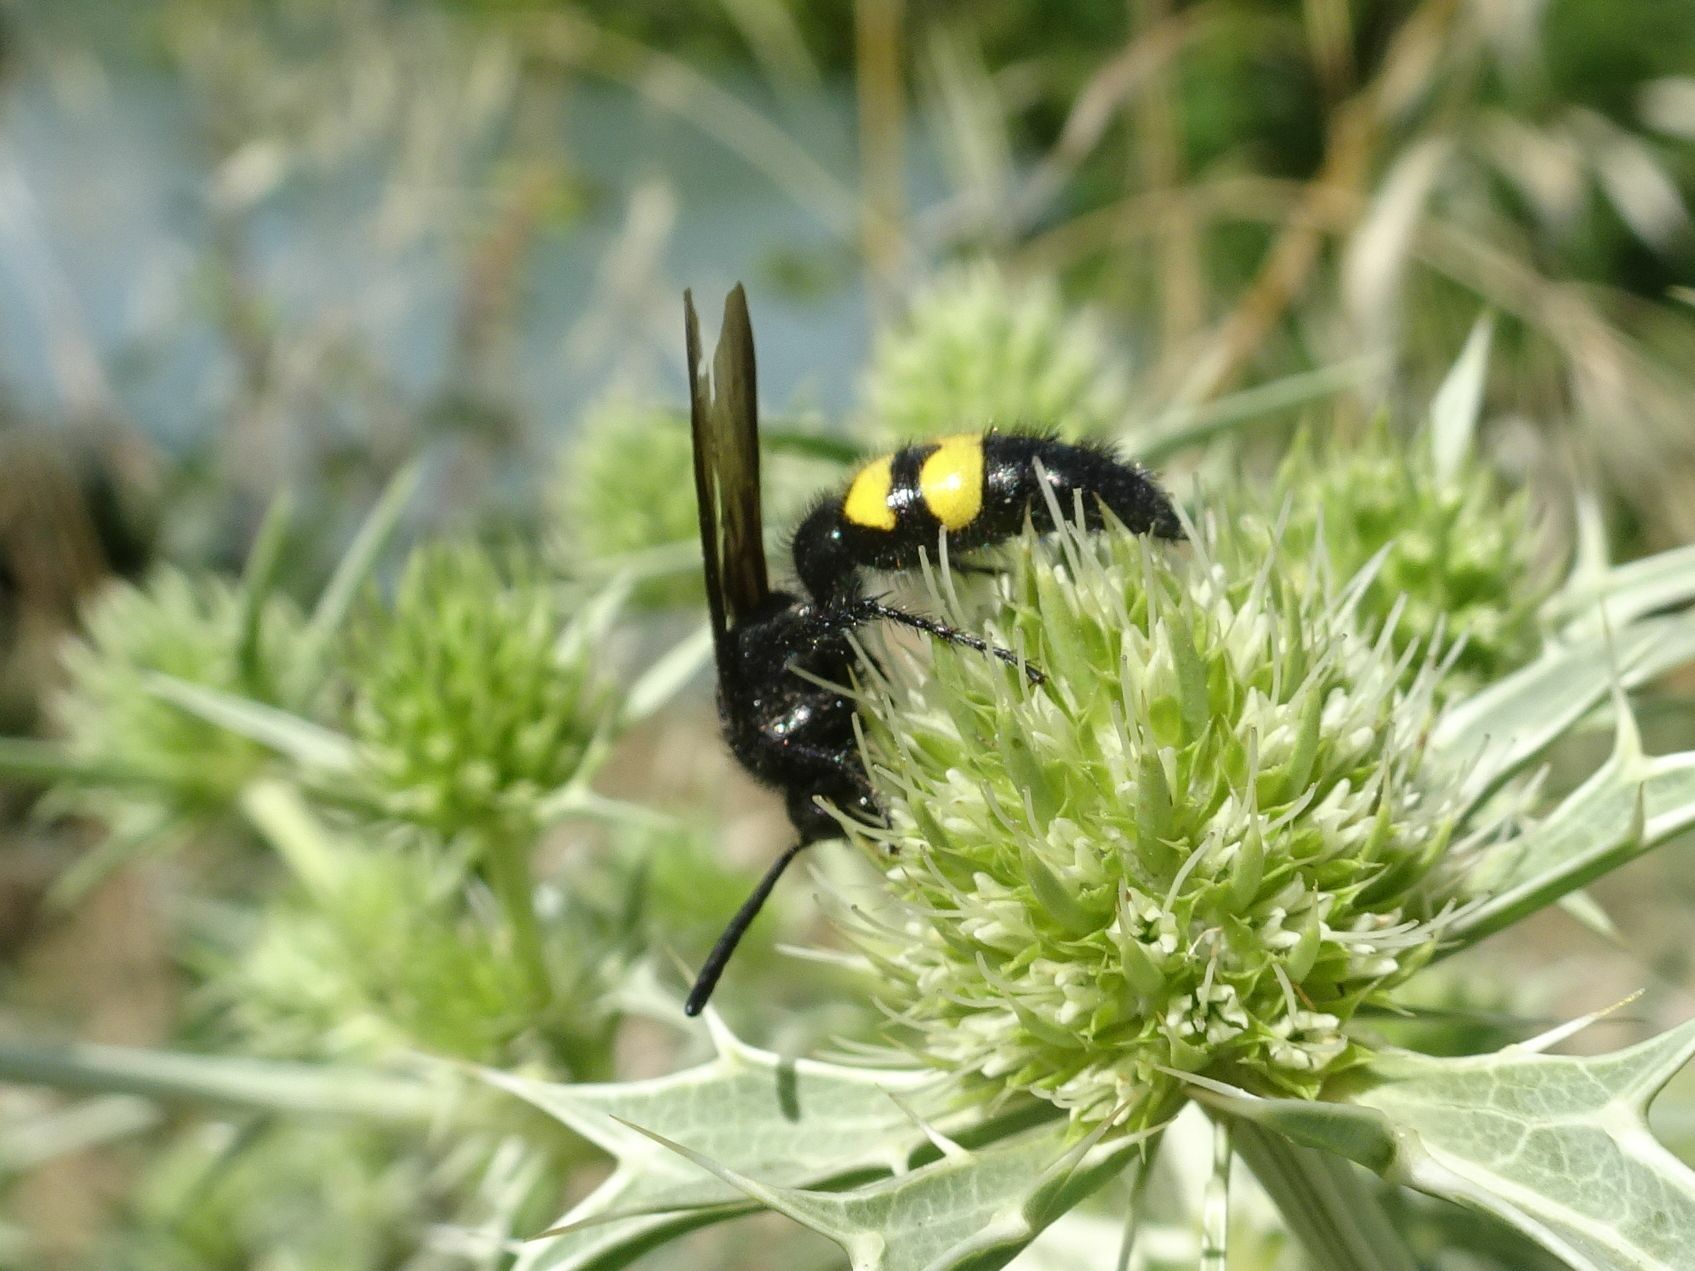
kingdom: Animalia
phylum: Arthropoda
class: Insecta
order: Hymenoptera
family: Scoliidae
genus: Scolia
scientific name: Scolia hirta
